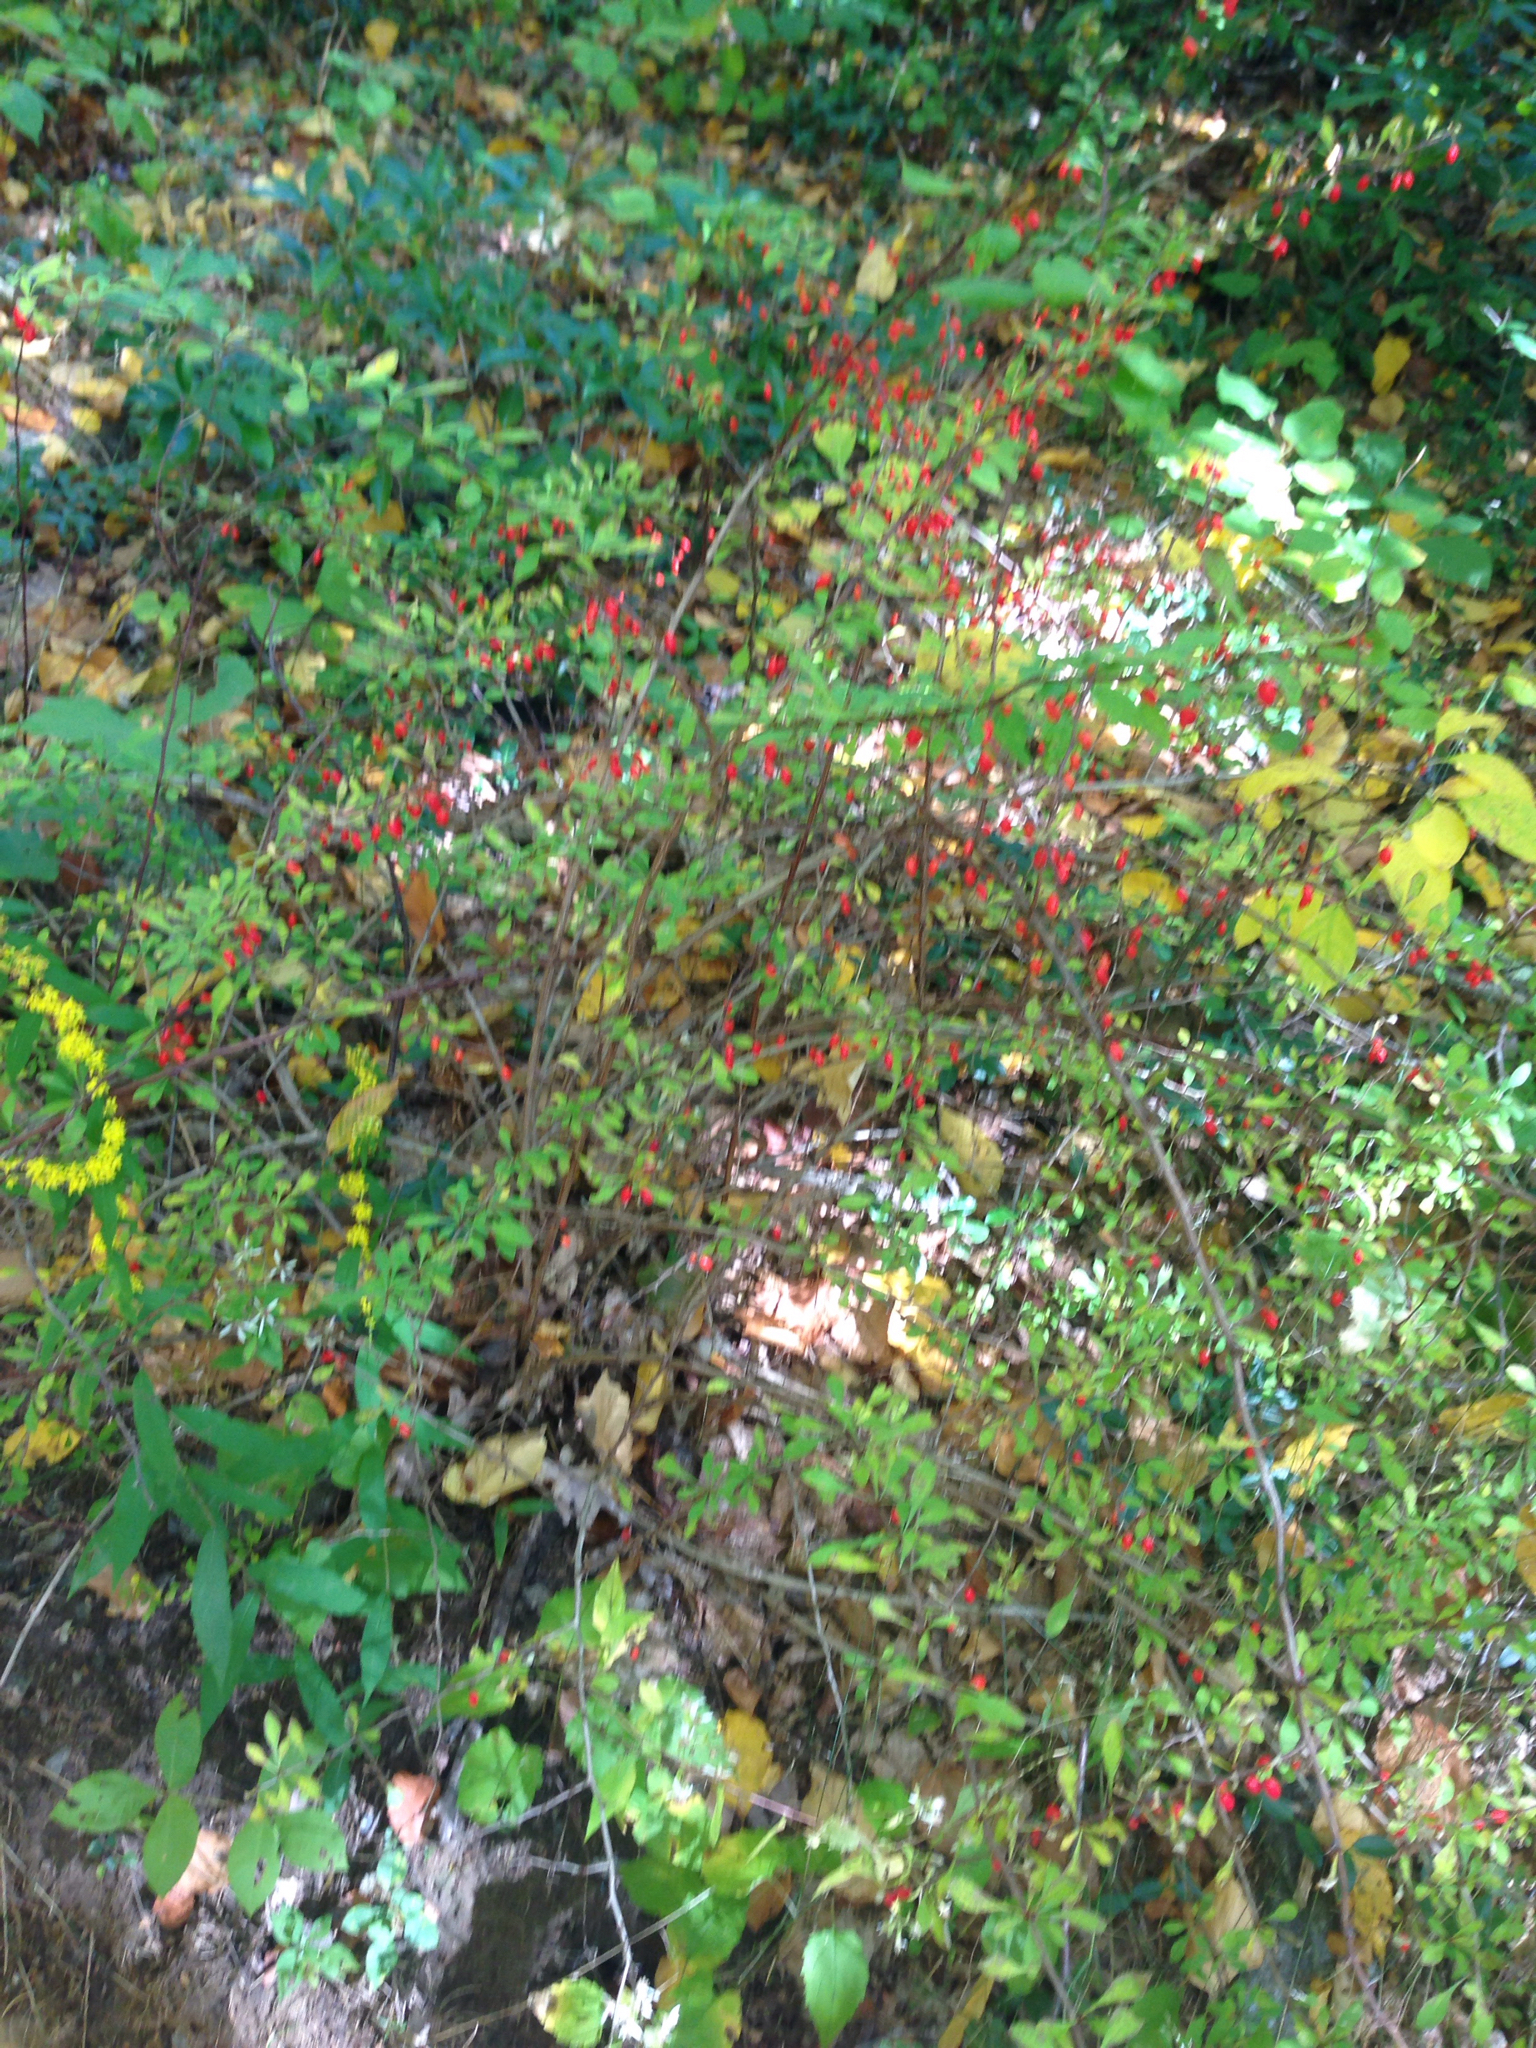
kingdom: Plantae
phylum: Tracheophyta
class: Magnoliopsida
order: Ranunculales
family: Berberidaceae
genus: Berberis
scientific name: Berberis thunbergii
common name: Japanese barberry
